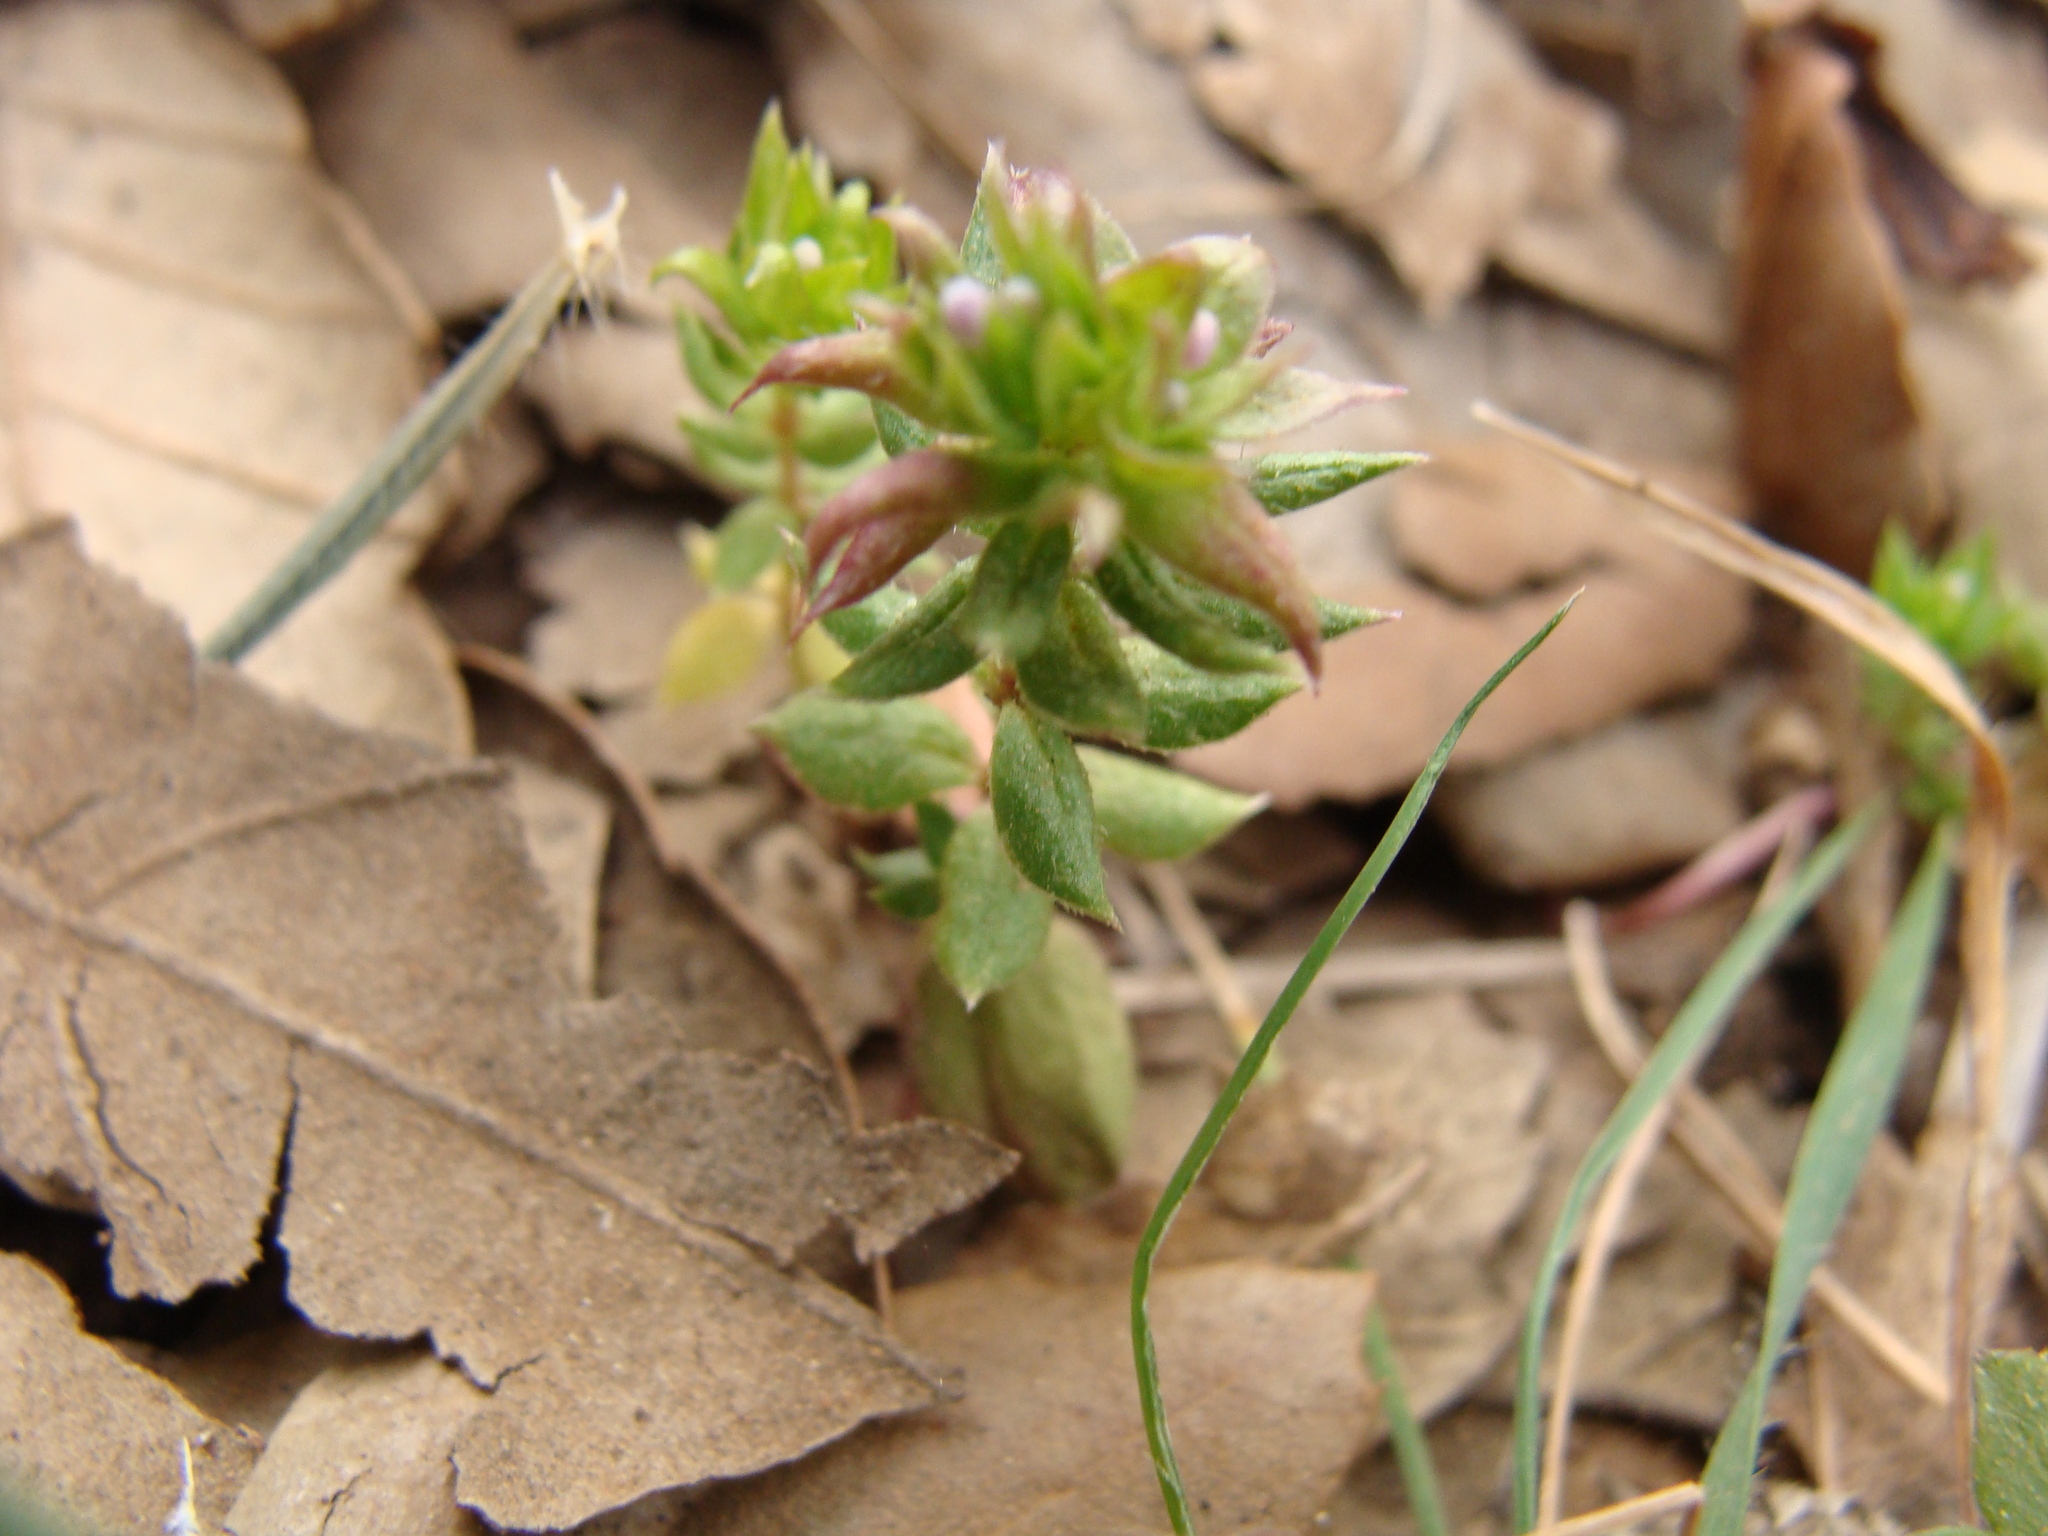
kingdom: Plantae
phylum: Tracheophyta
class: Magnoliopsida
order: Gentianales
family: Rubiaceae
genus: Sherardia
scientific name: Sherardia arvensis
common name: Field madder
